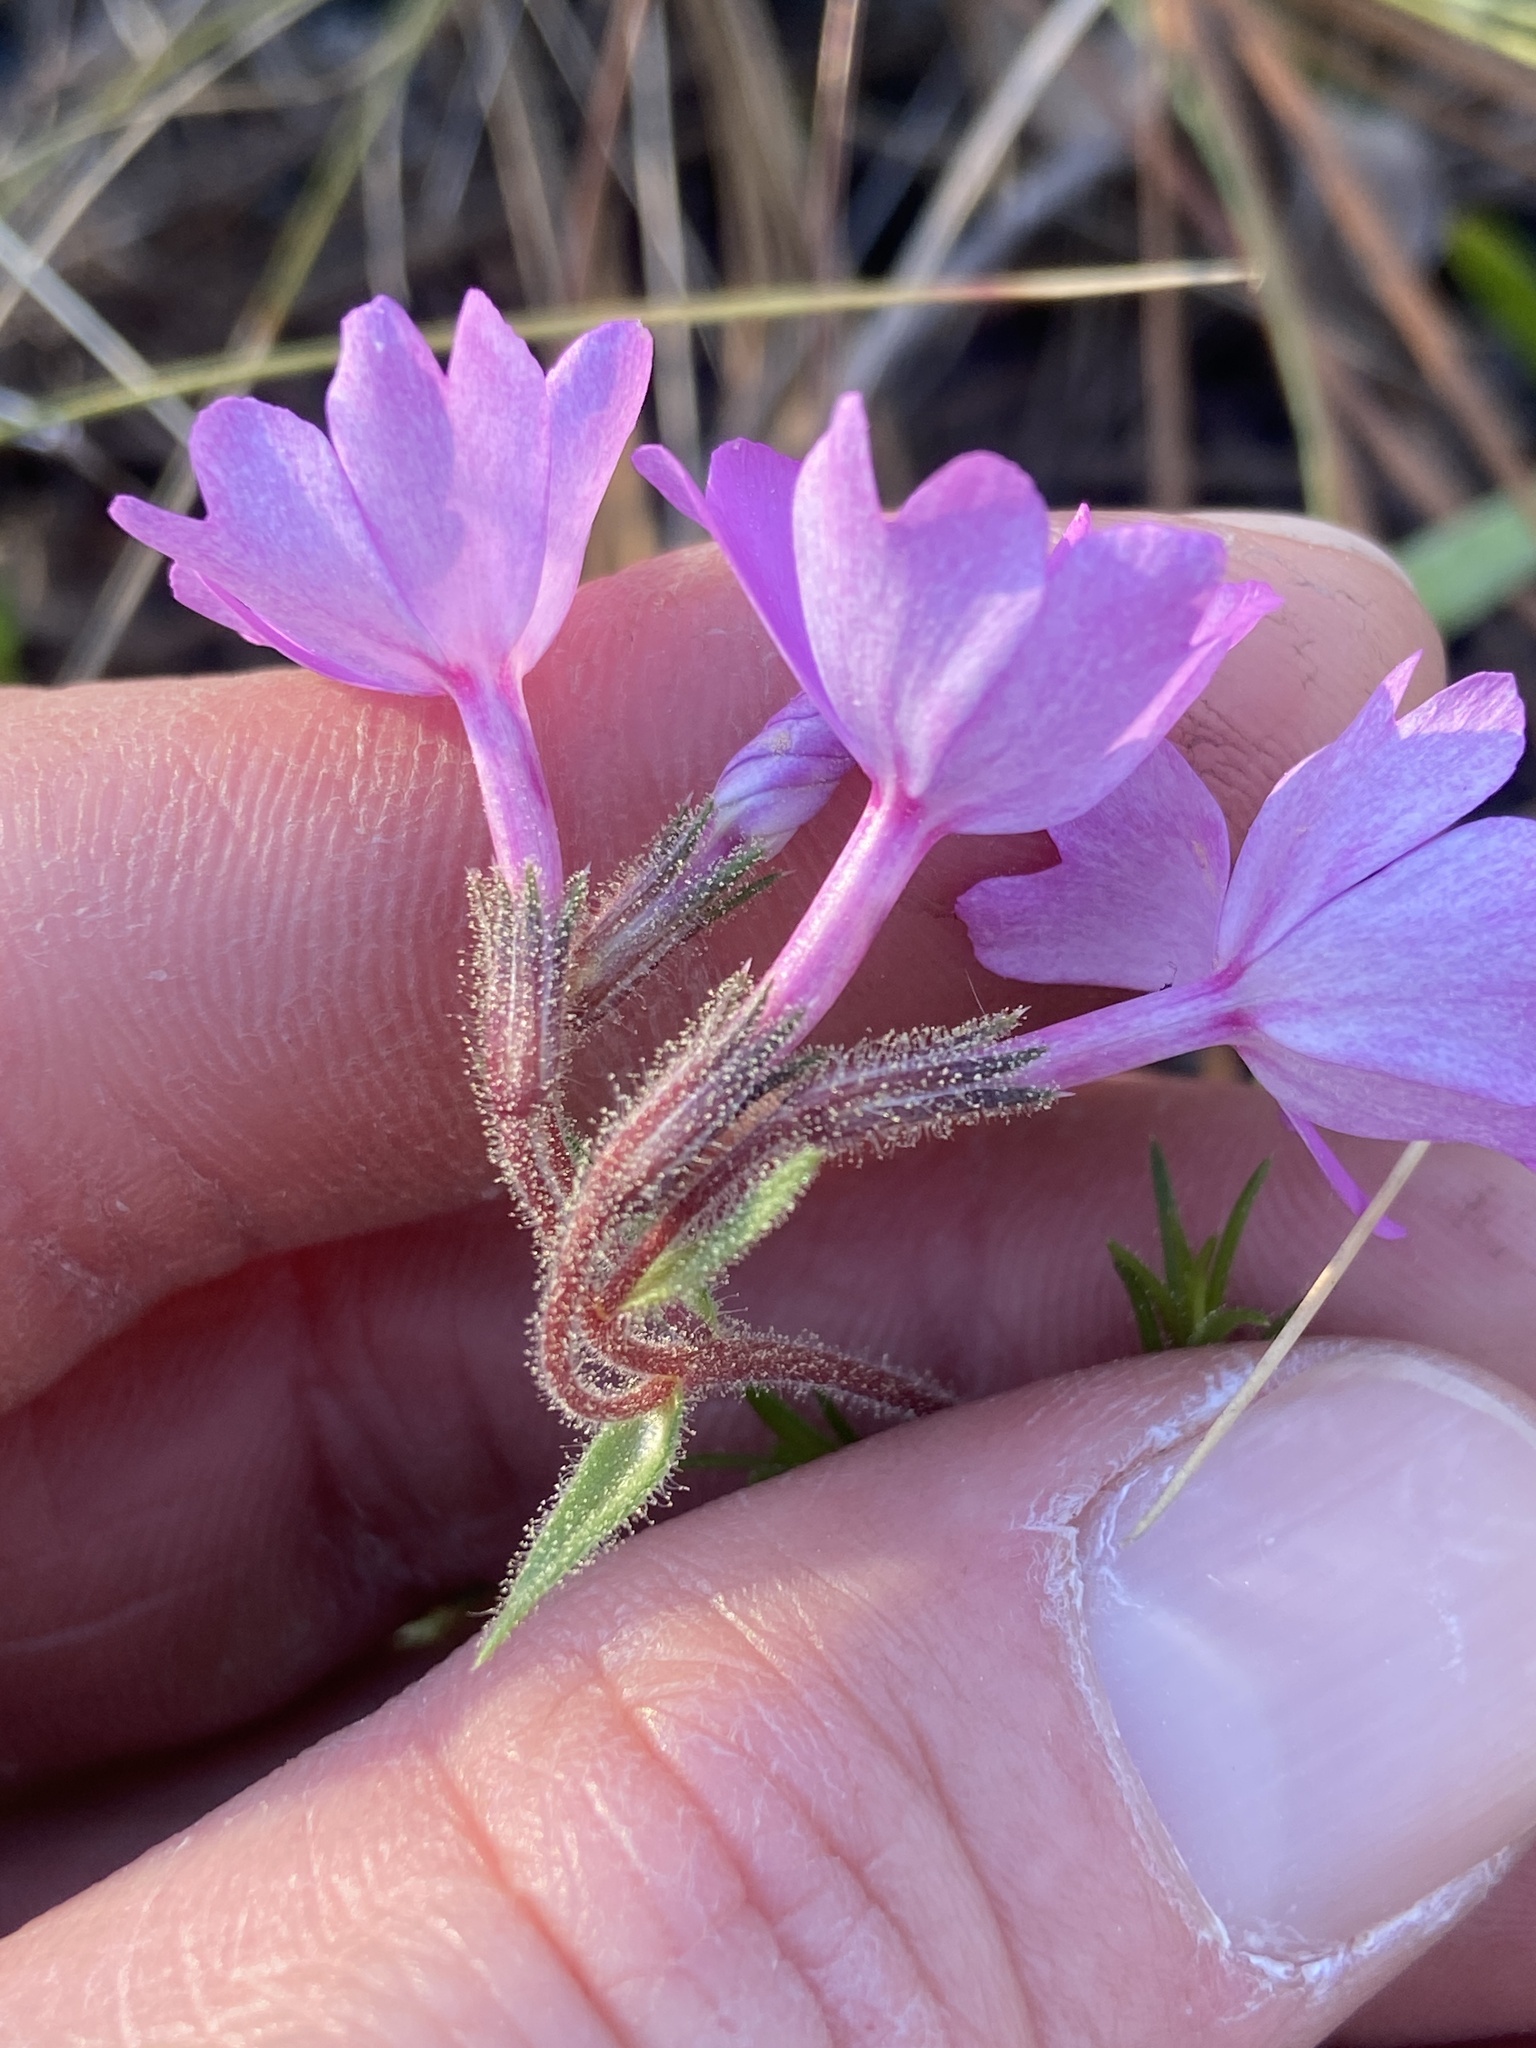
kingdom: Plantae
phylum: Tracheophyta
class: Magnoliopsida
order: Ericales
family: Polemoniaceae
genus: Phlox
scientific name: Phlox nivalis
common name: Trailing phlox
